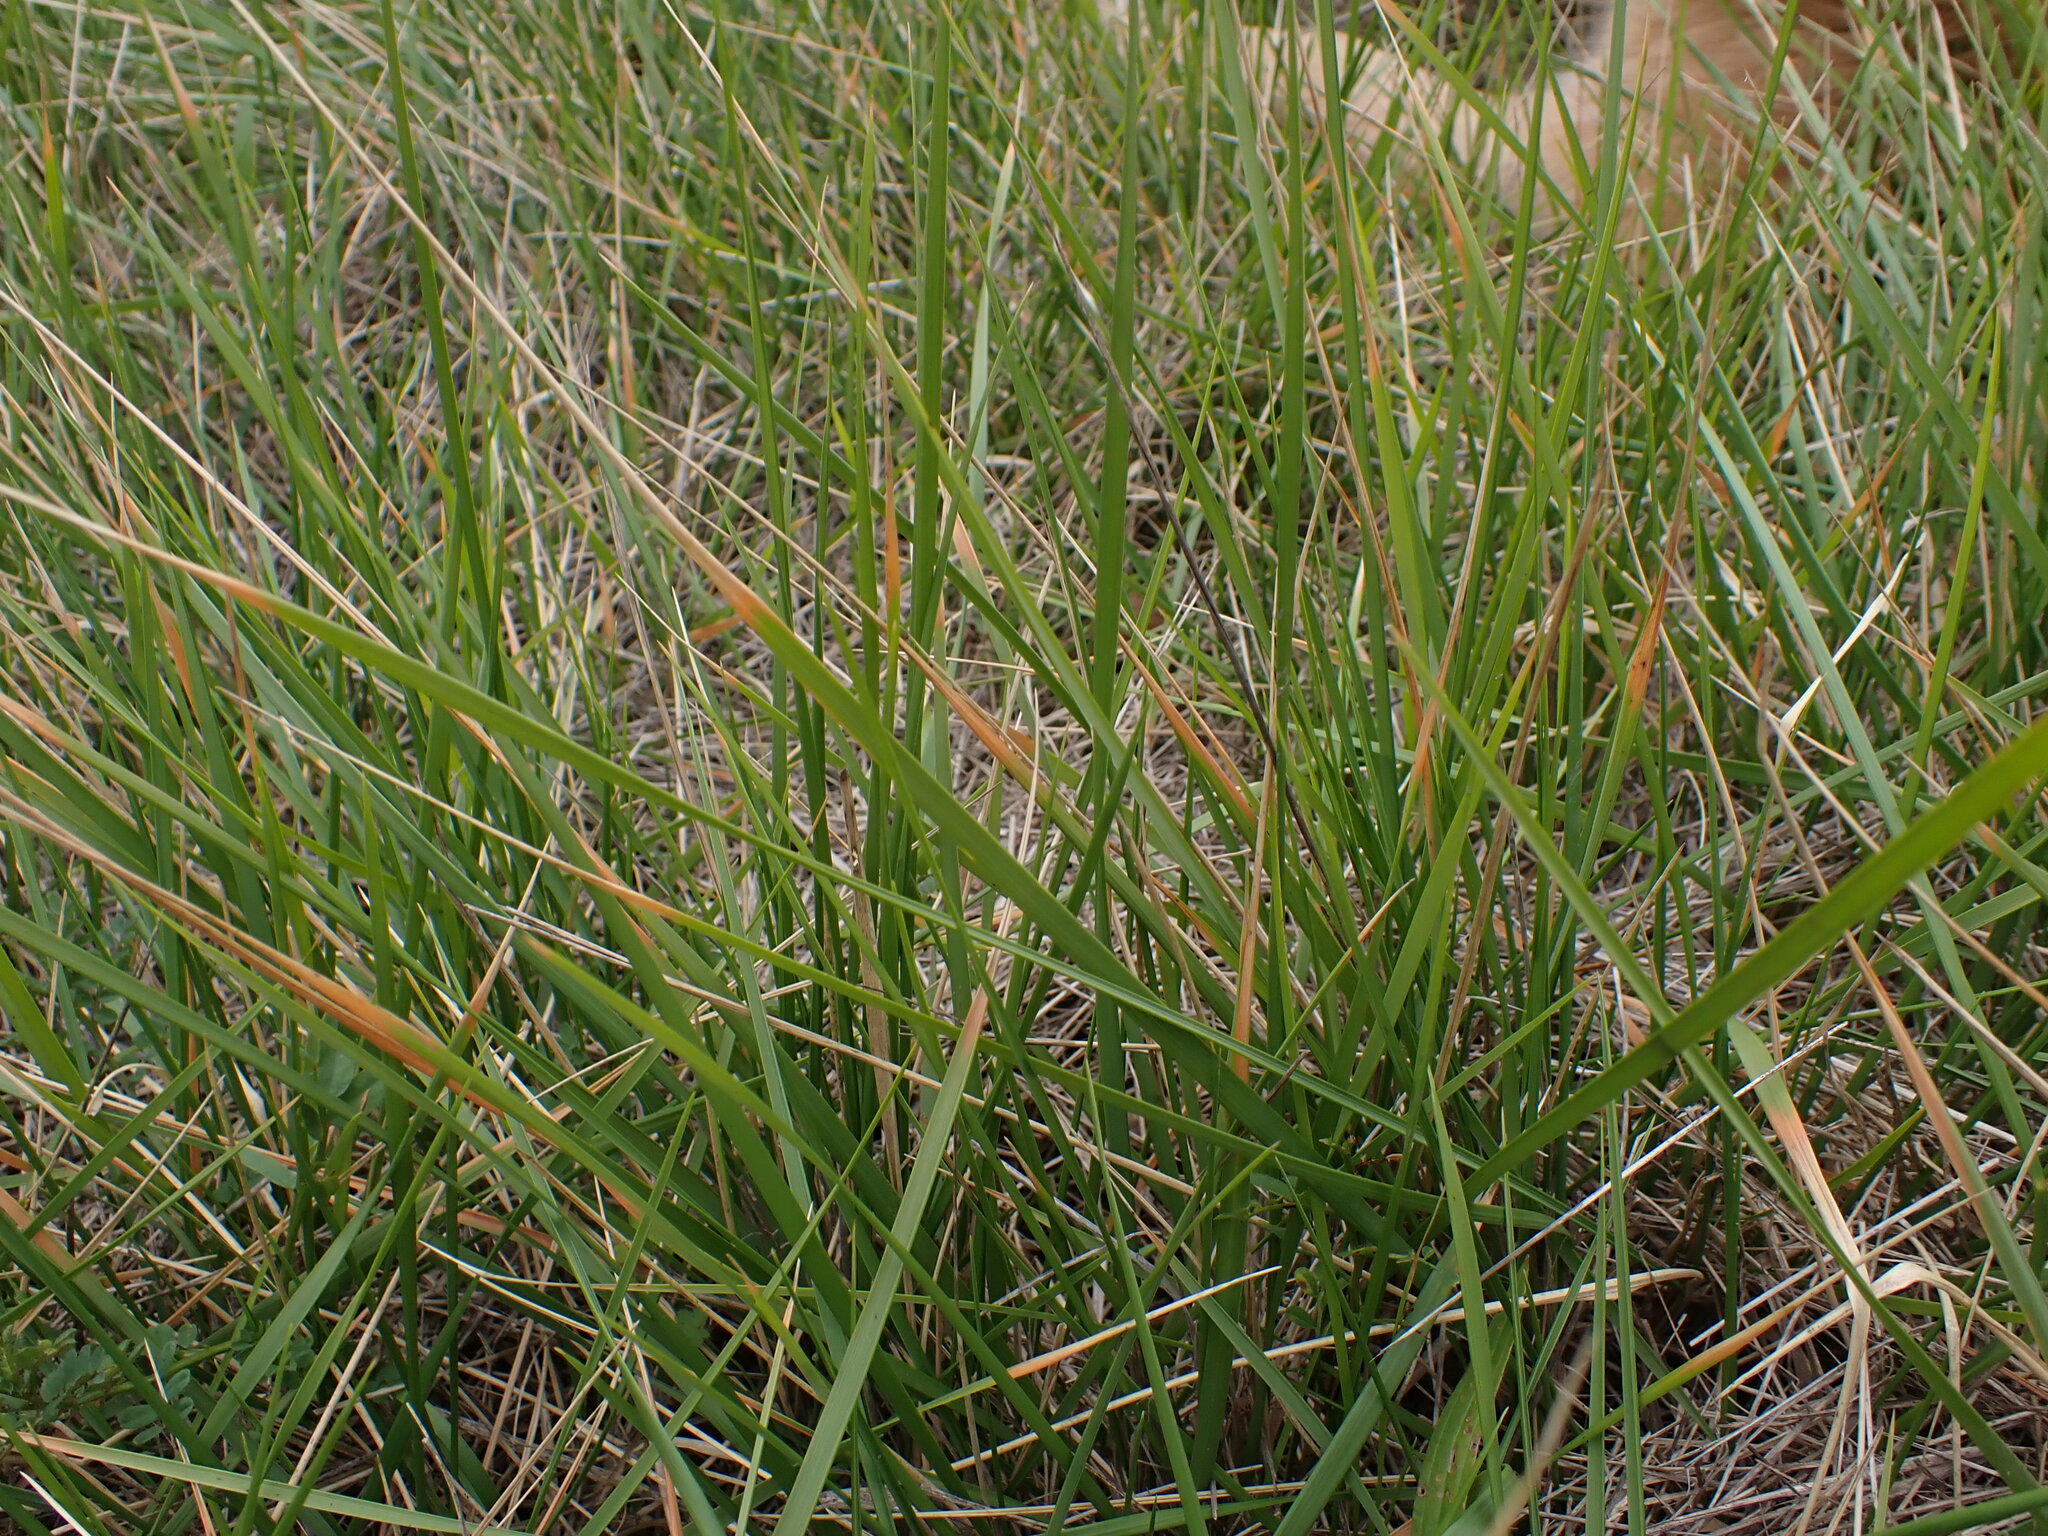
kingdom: Plantae
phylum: Tracheophyta
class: Liliopsida
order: Poales
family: Poaceae
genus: Brachypodium
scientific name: Brachypodium phoenicoides
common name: Thinleaf false brome
